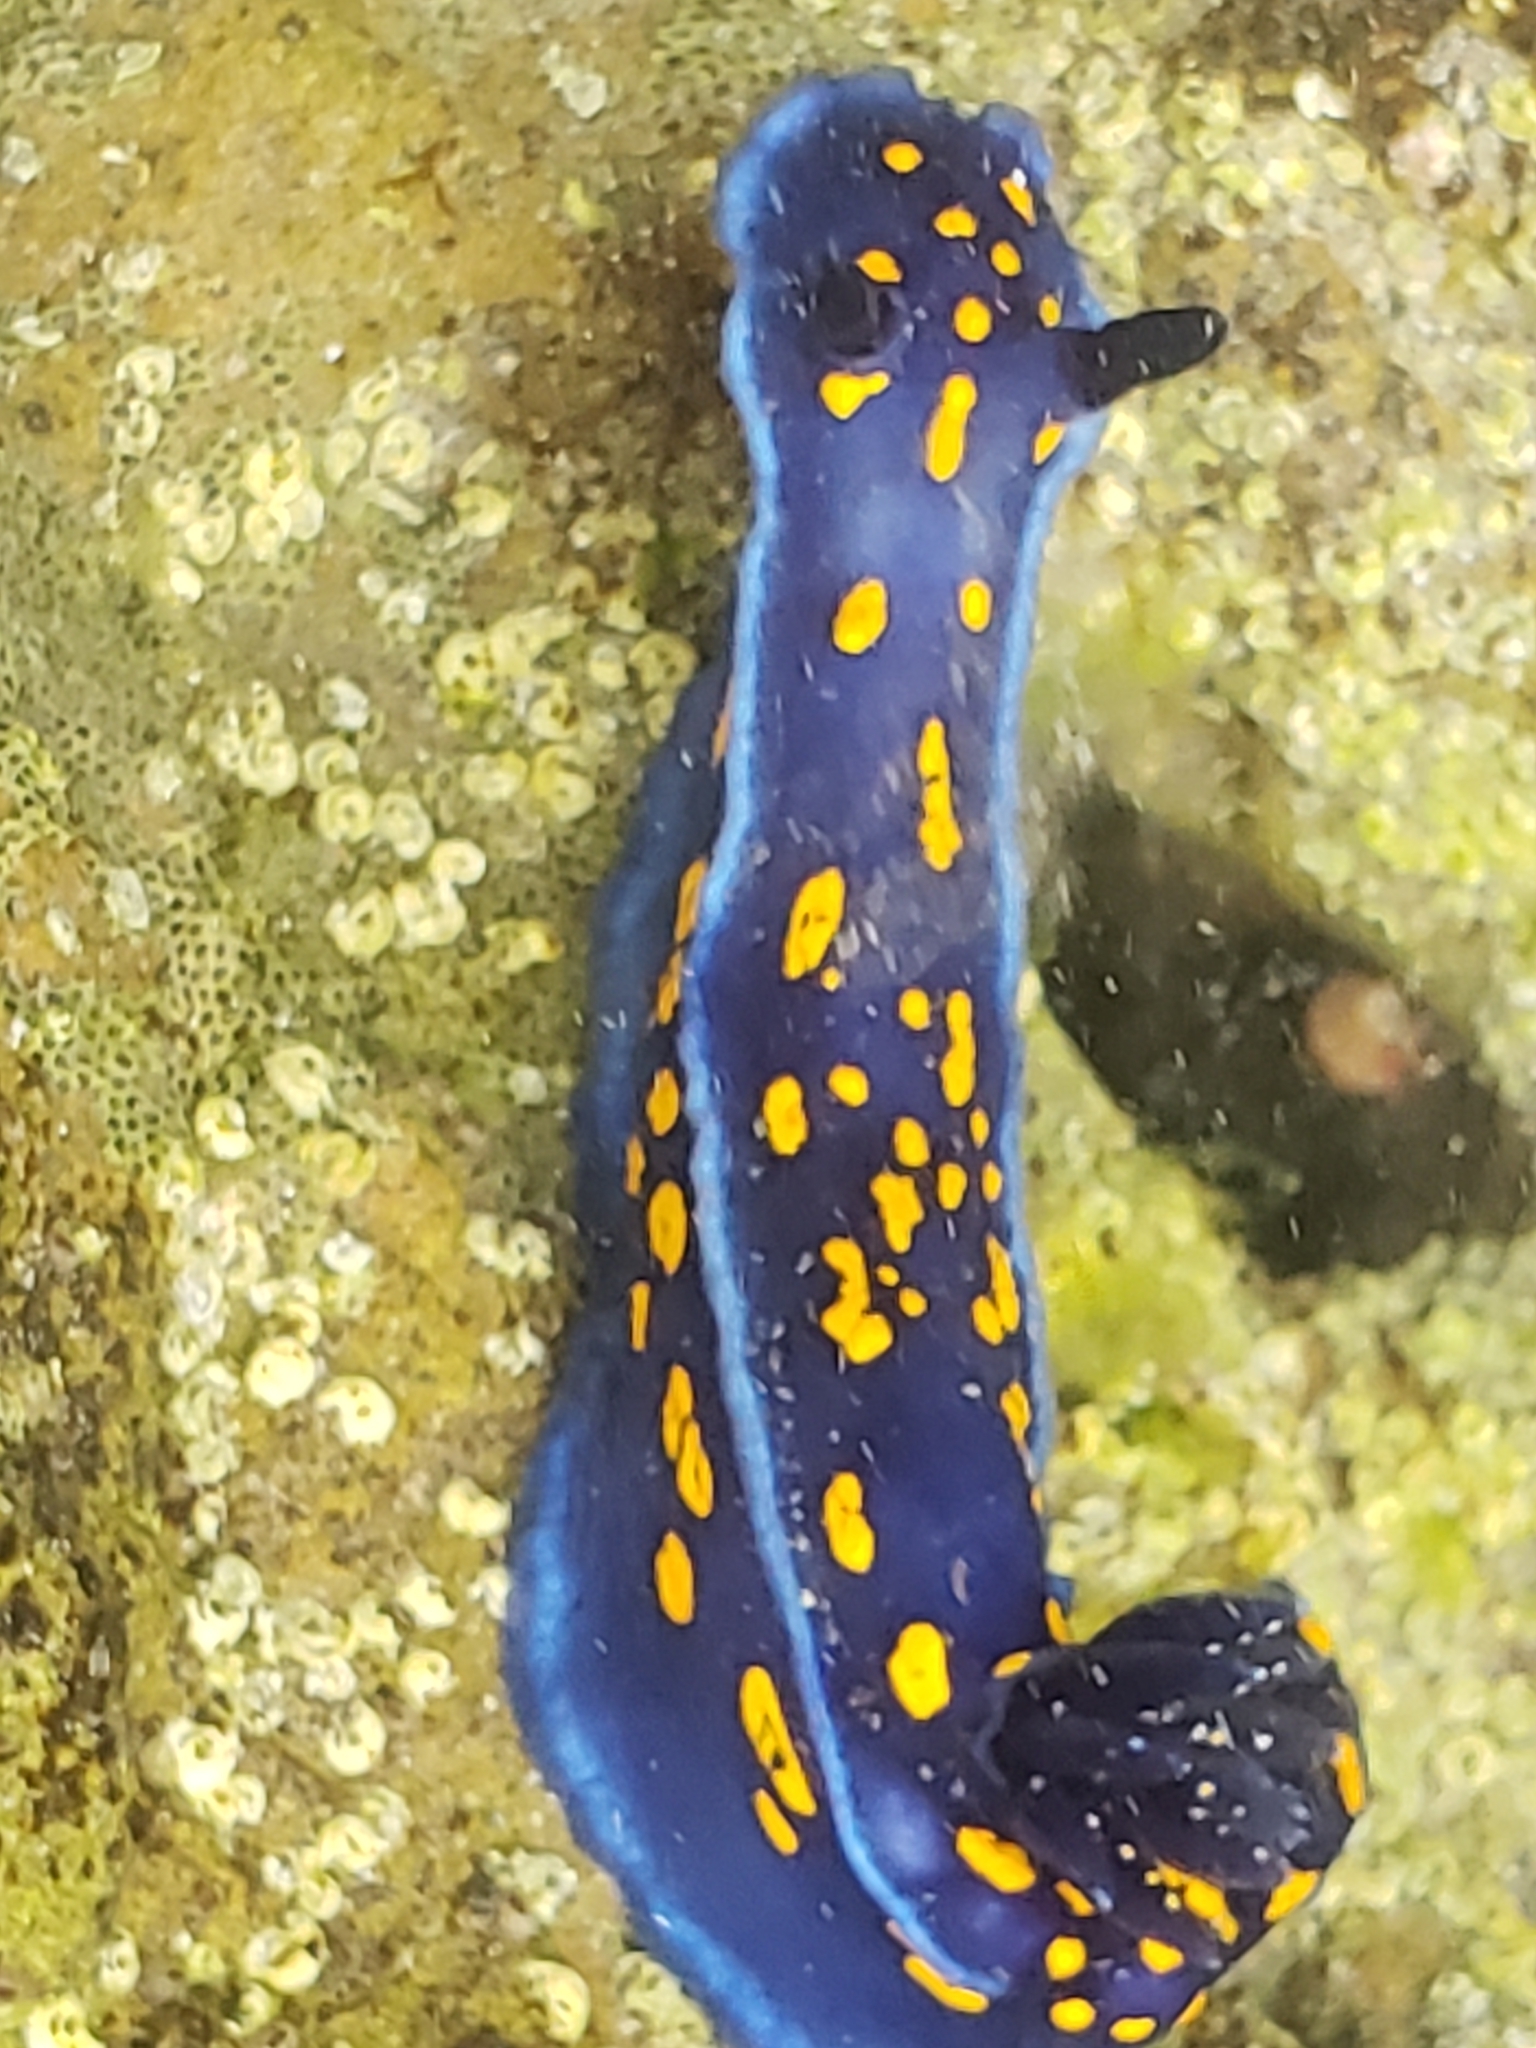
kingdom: Animalia
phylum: Mollusca
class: Gastropoda
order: Nudibranchia
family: Chromodorididae
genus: Felimare
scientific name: Felimare californiensis
